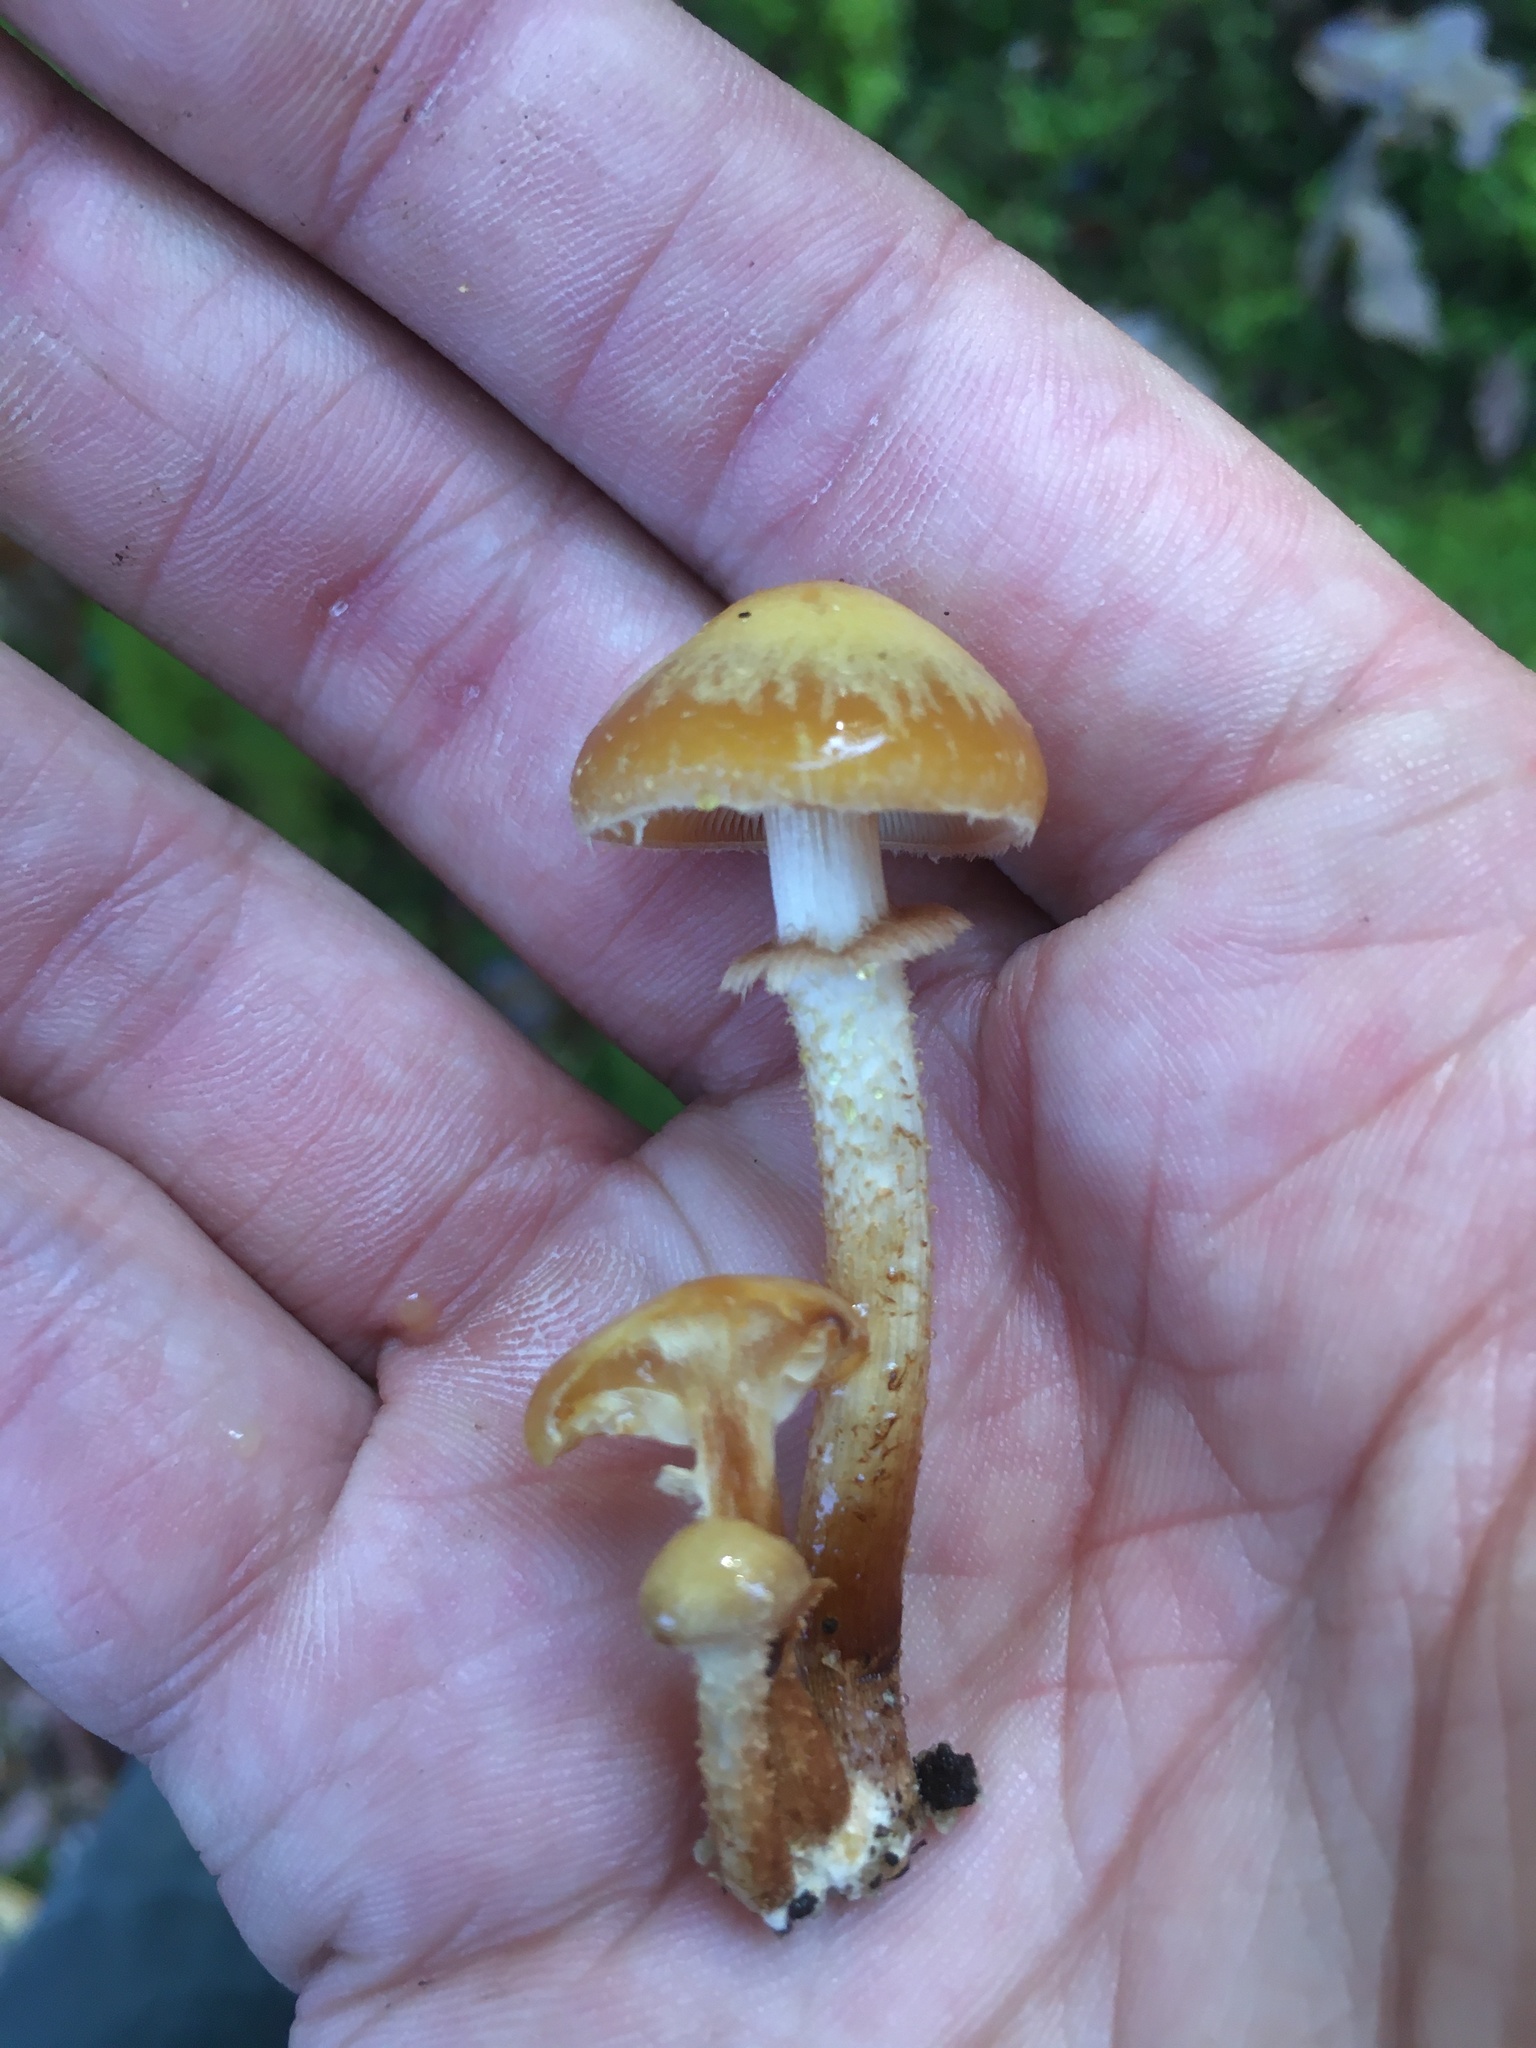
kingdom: Fungi
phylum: Basidiomycota
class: Agaricomycetes
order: Agaricales
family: Strophariaceae
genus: Kuehneromyces
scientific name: Kuehneromyces mutabilis
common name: Sheathed woodtuft
